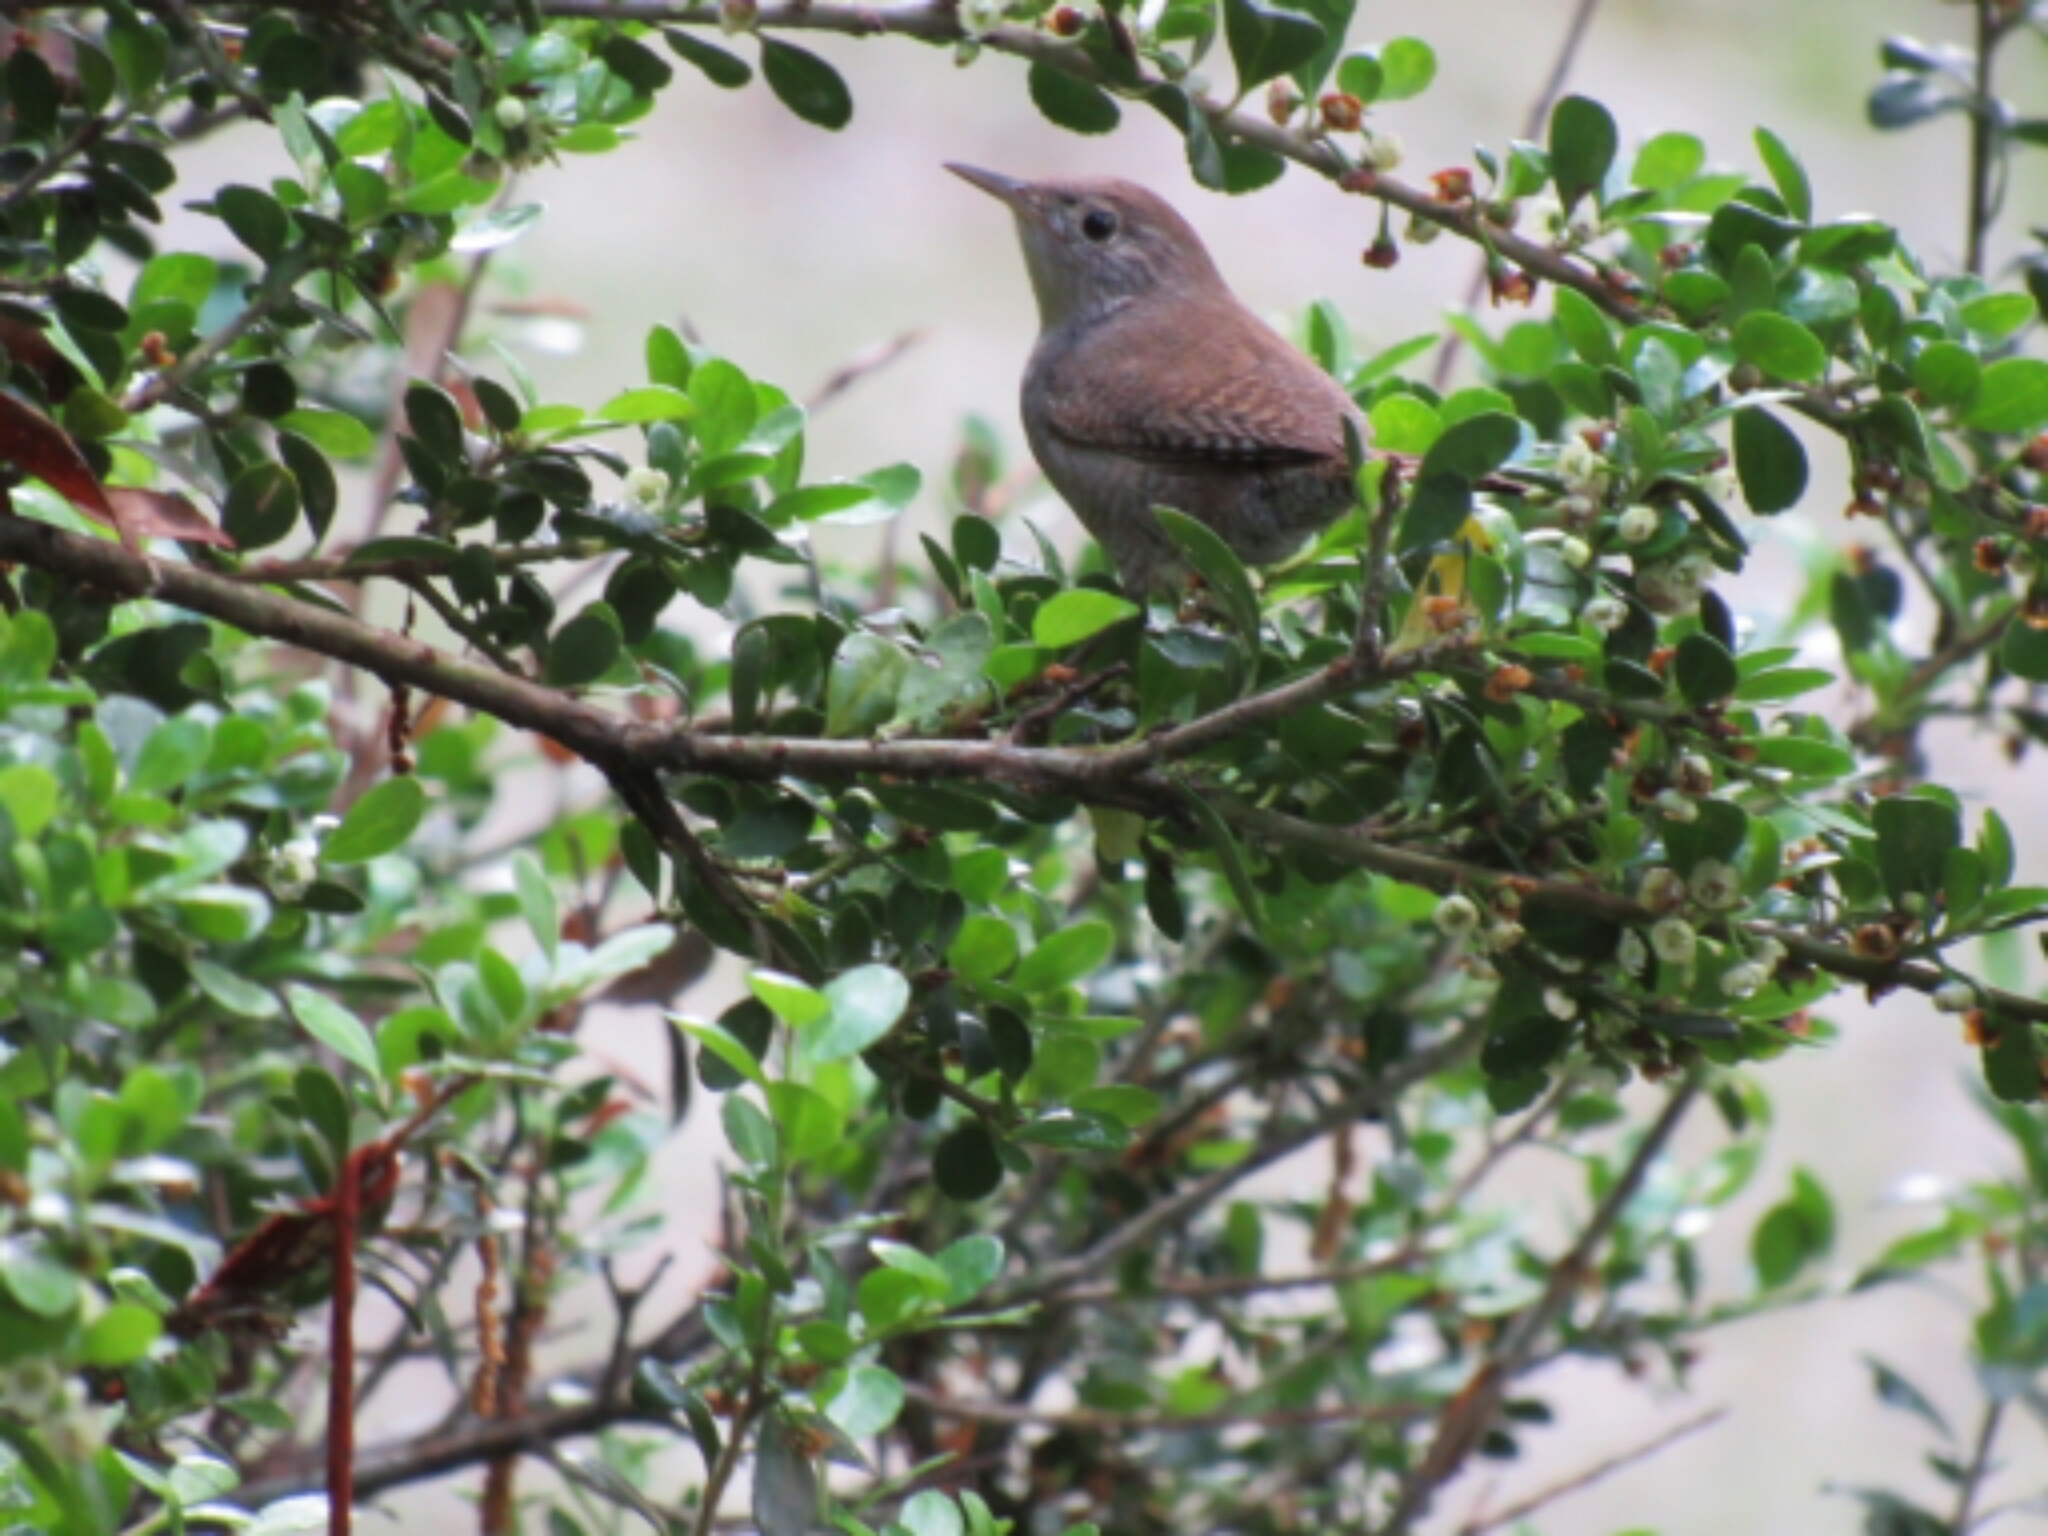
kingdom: Animalia
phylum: Chordata
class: Aves
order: Passeriformes
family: Troglodytidae
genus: Troglodytes
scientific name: Troglodytes aedon
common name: House wren
